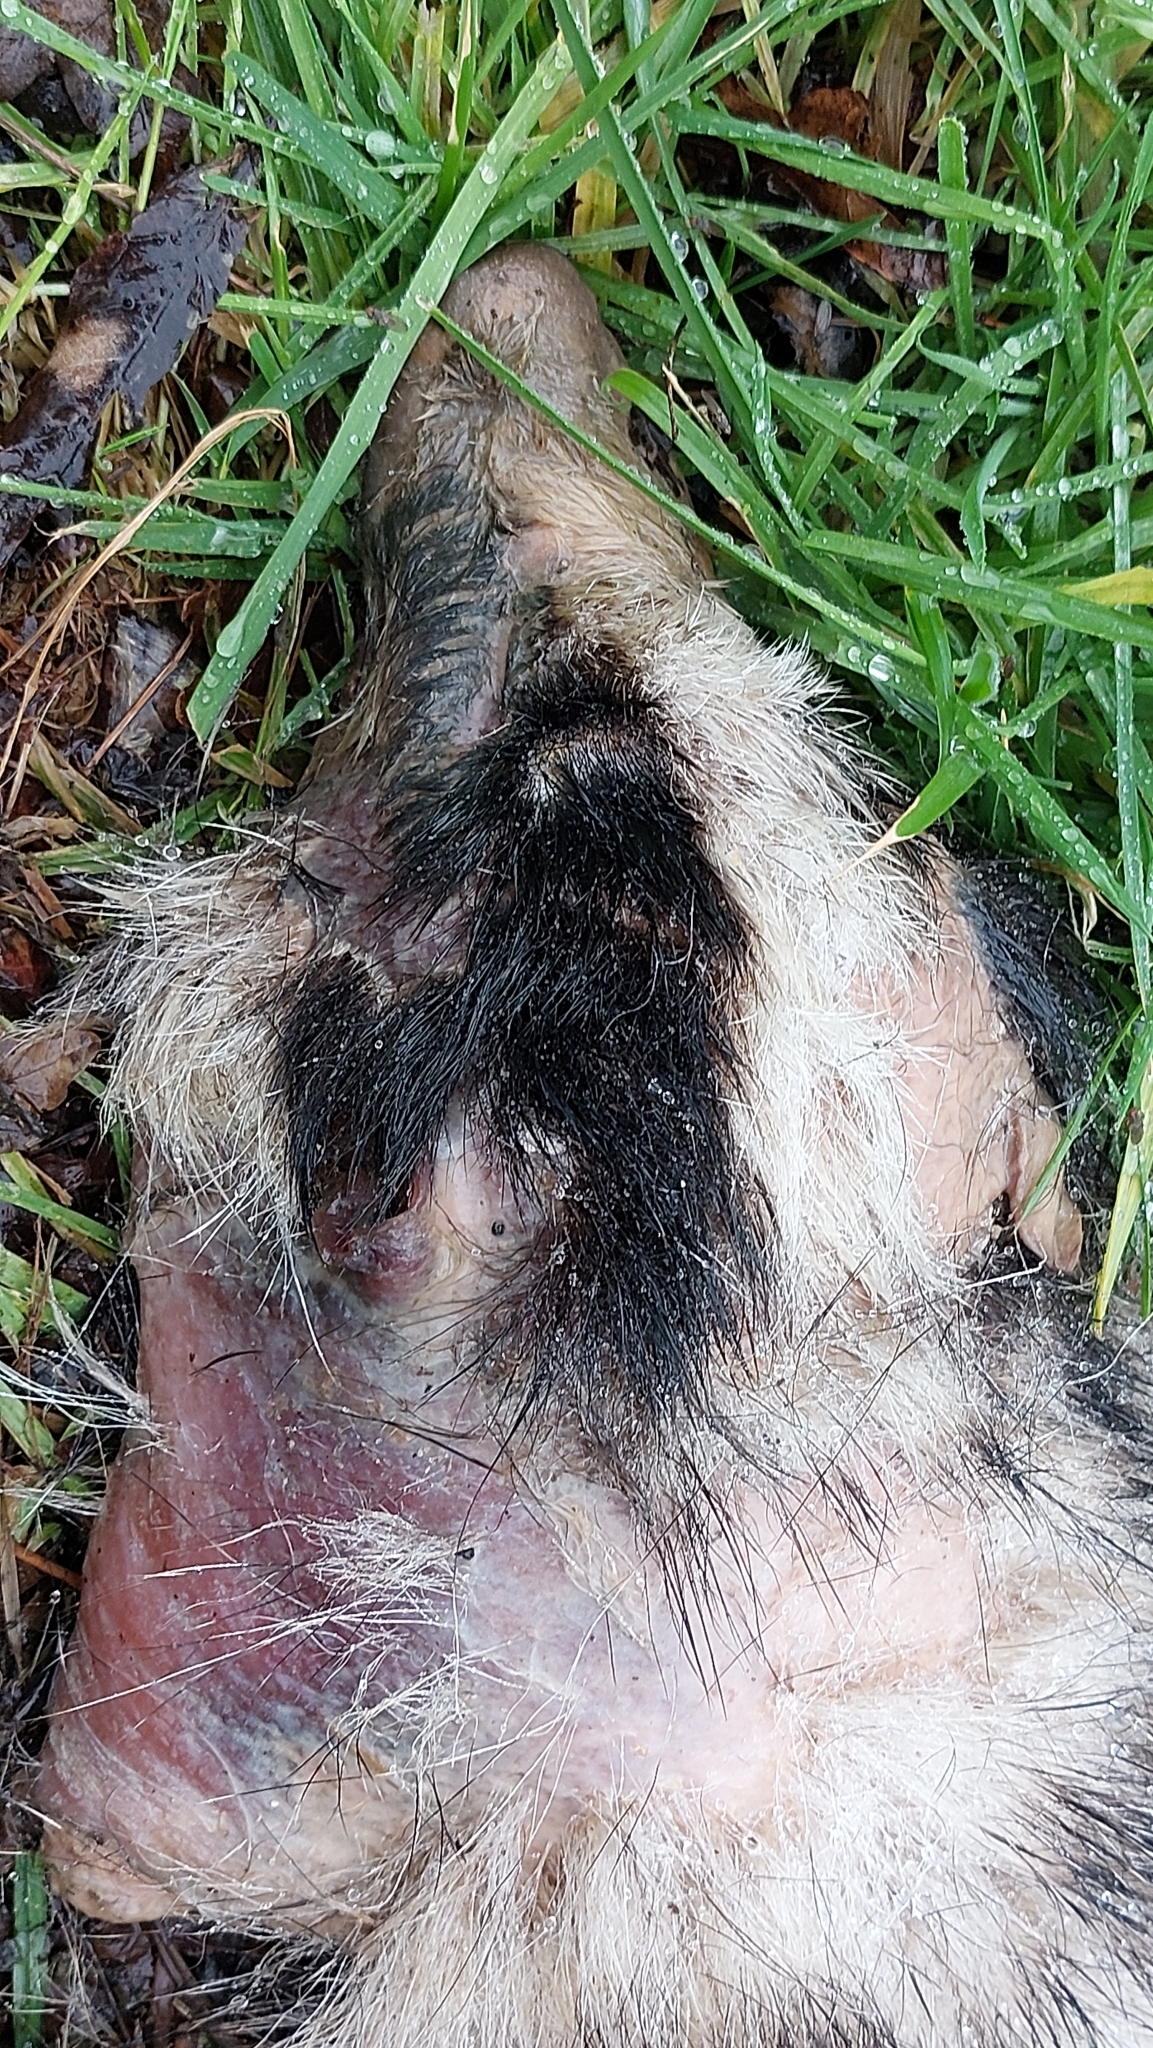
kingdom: Animalia
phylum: Chordata
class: Mammalia
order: Carnivora
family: Mustelidae
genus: Meles
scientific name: Meles meles
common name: Eurasian badger
